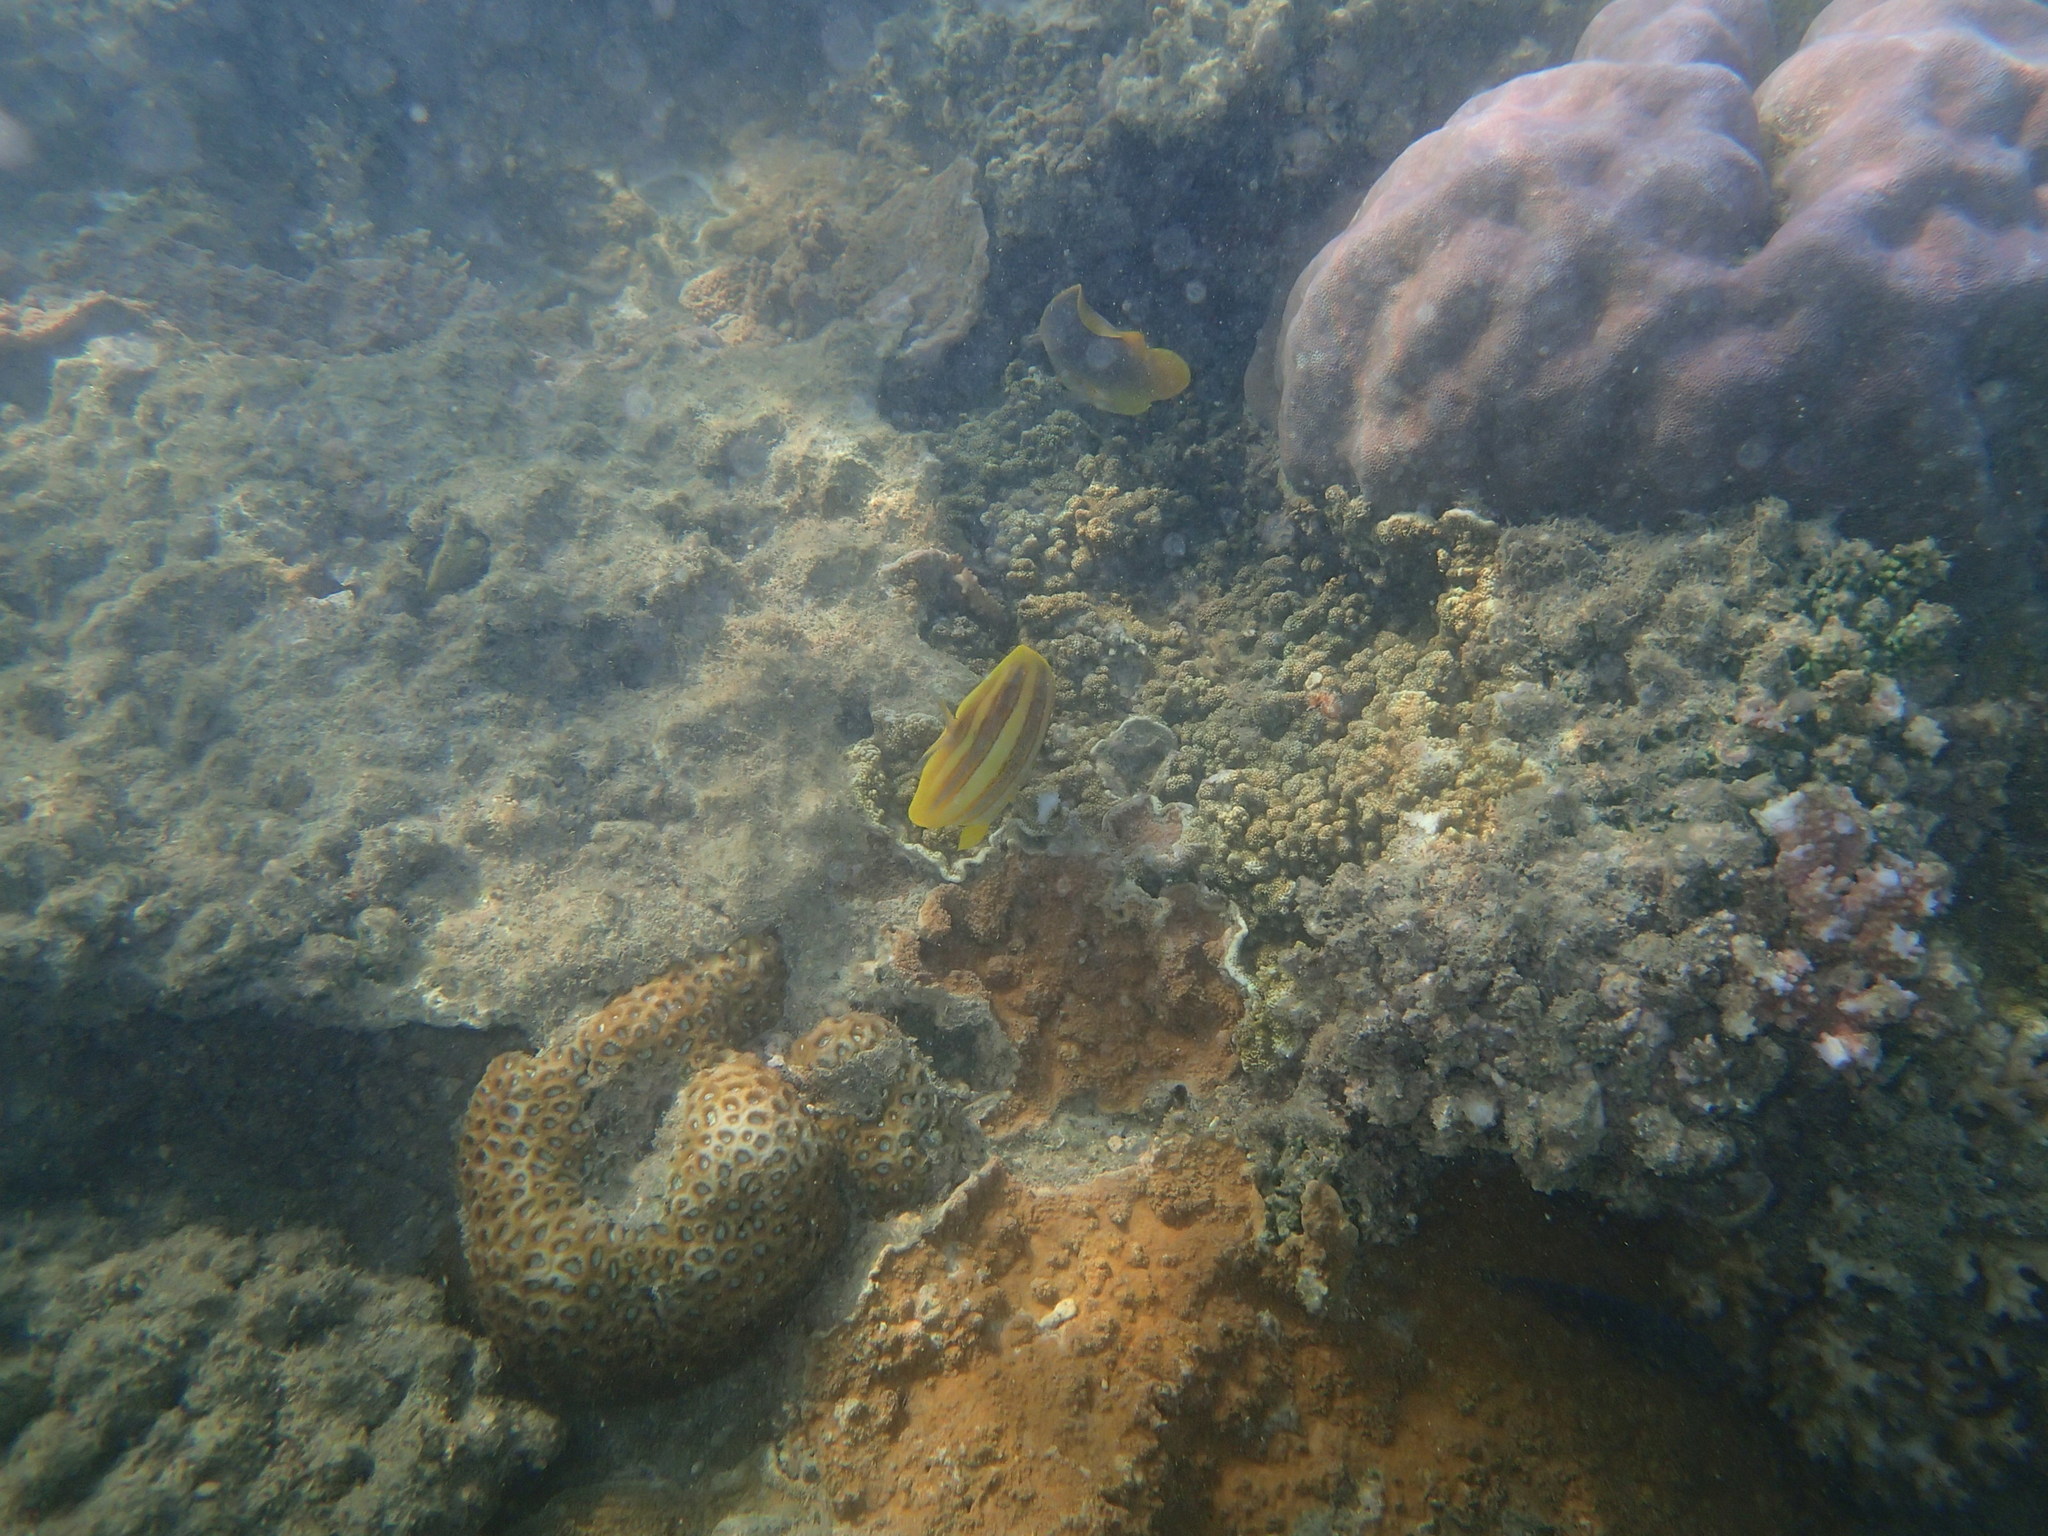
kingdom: Animalia
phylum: Chordata
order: Perciformes
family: Chaetodontidae
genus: Chaetodon
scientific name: Chaetodon rainfordi
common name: Rainford's butterflyfish
